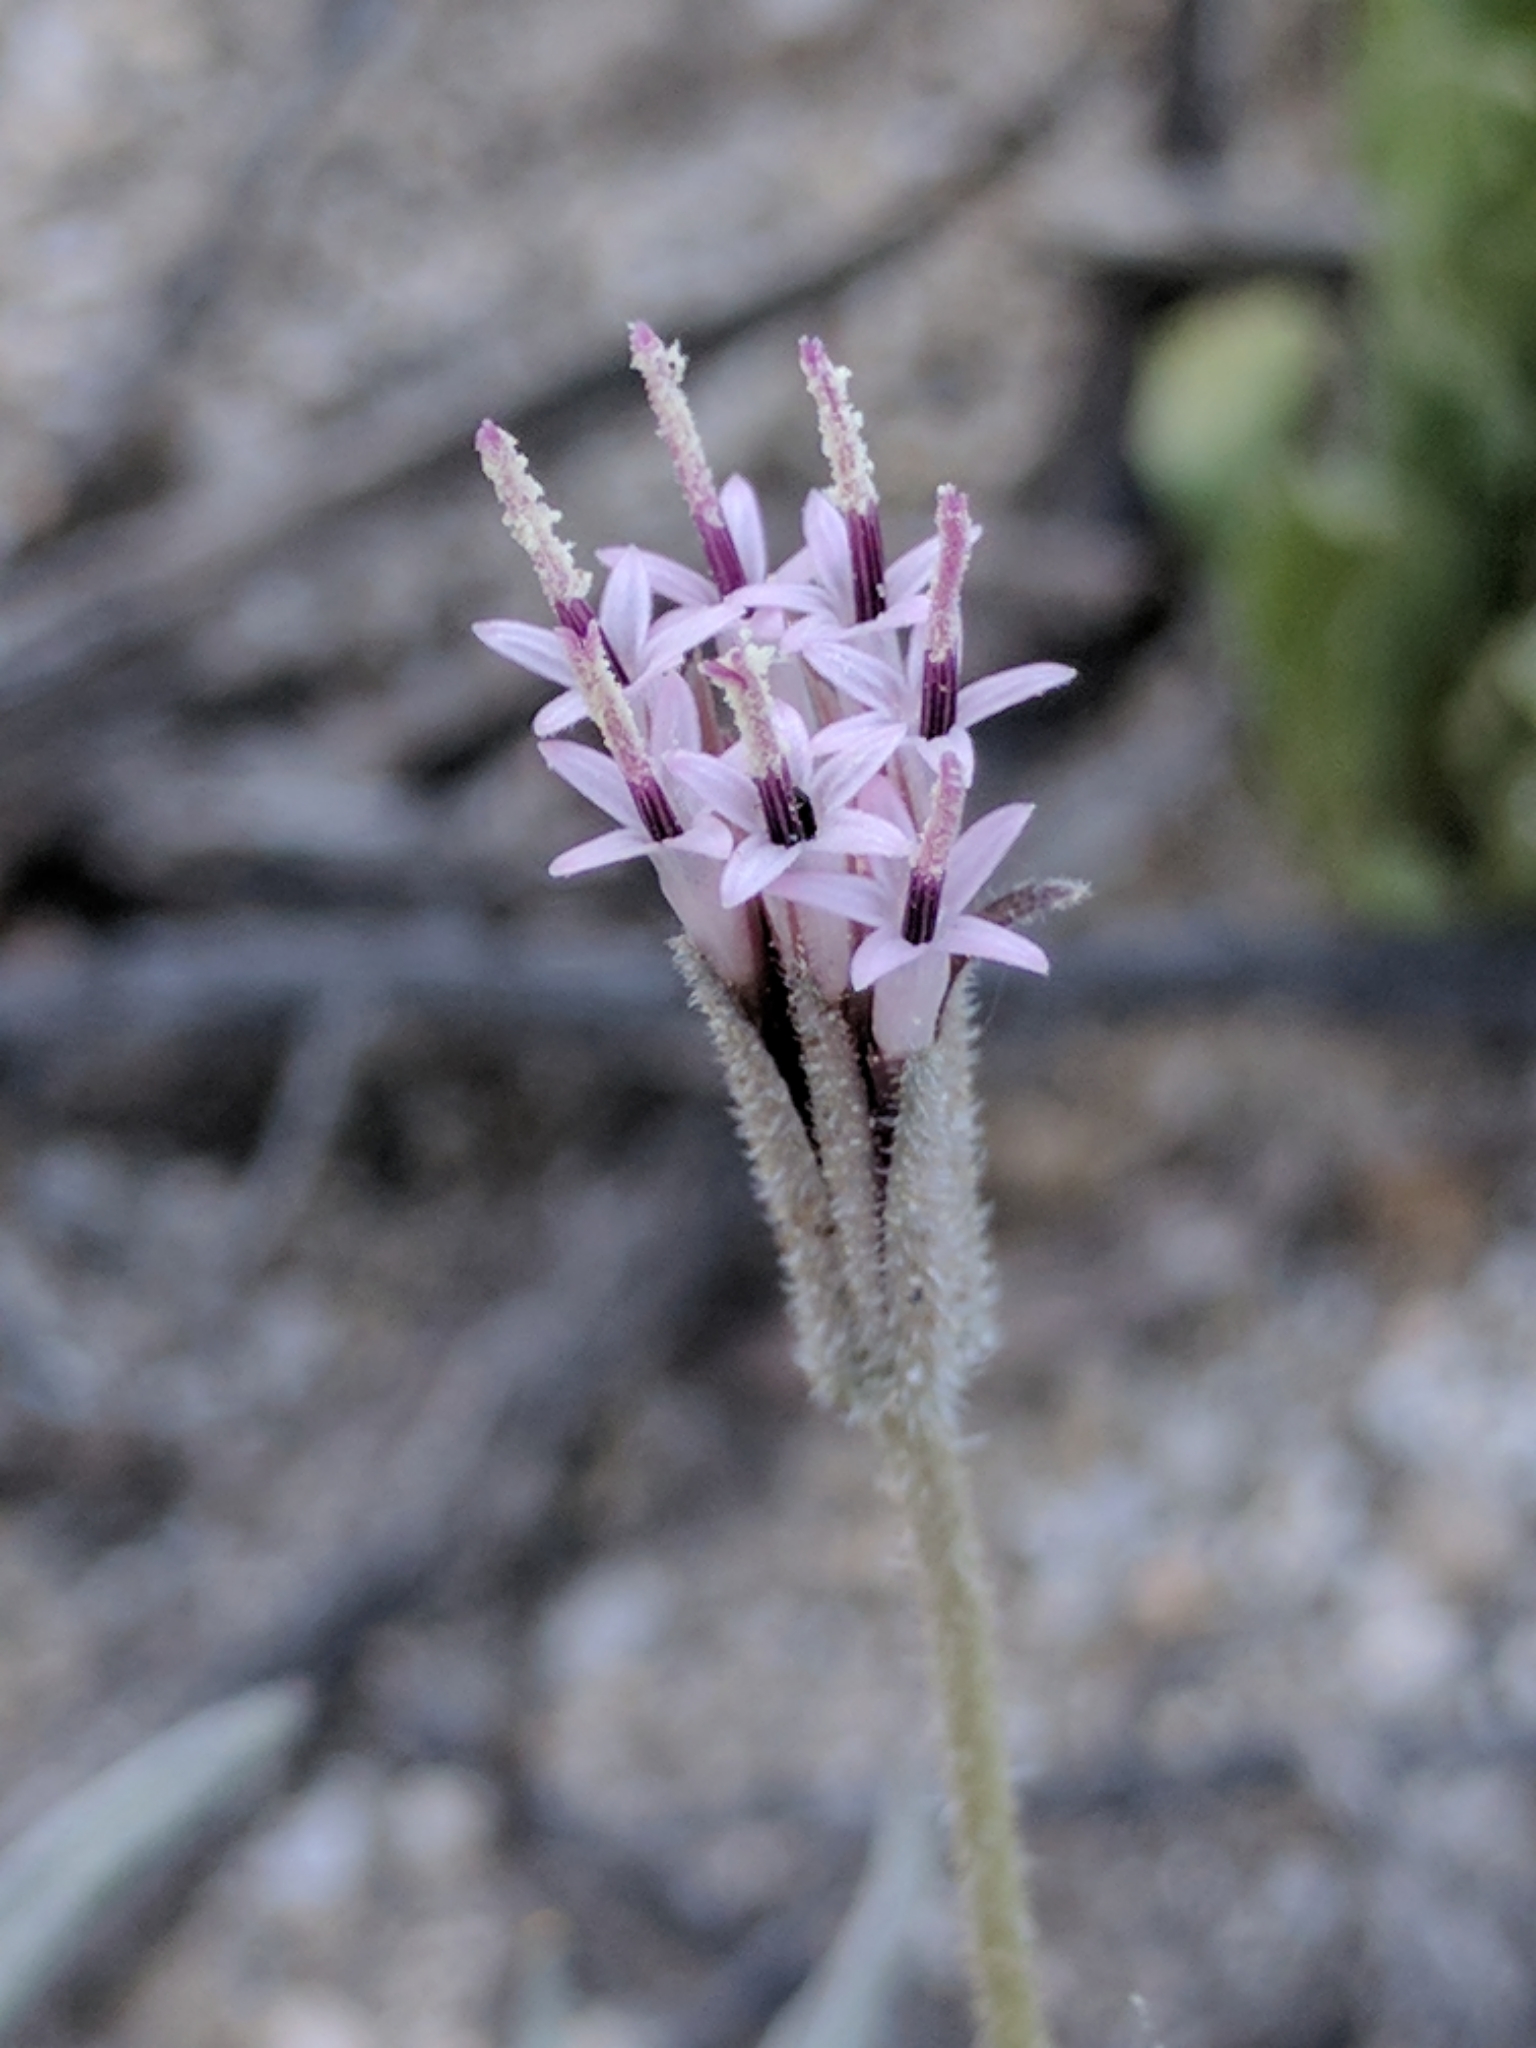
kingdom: Plantae
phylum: Tracheophyta
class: Magnoliopsida
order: Asterales
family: Asteraceae
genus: Palafoxia
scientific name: Palafoxia arida
